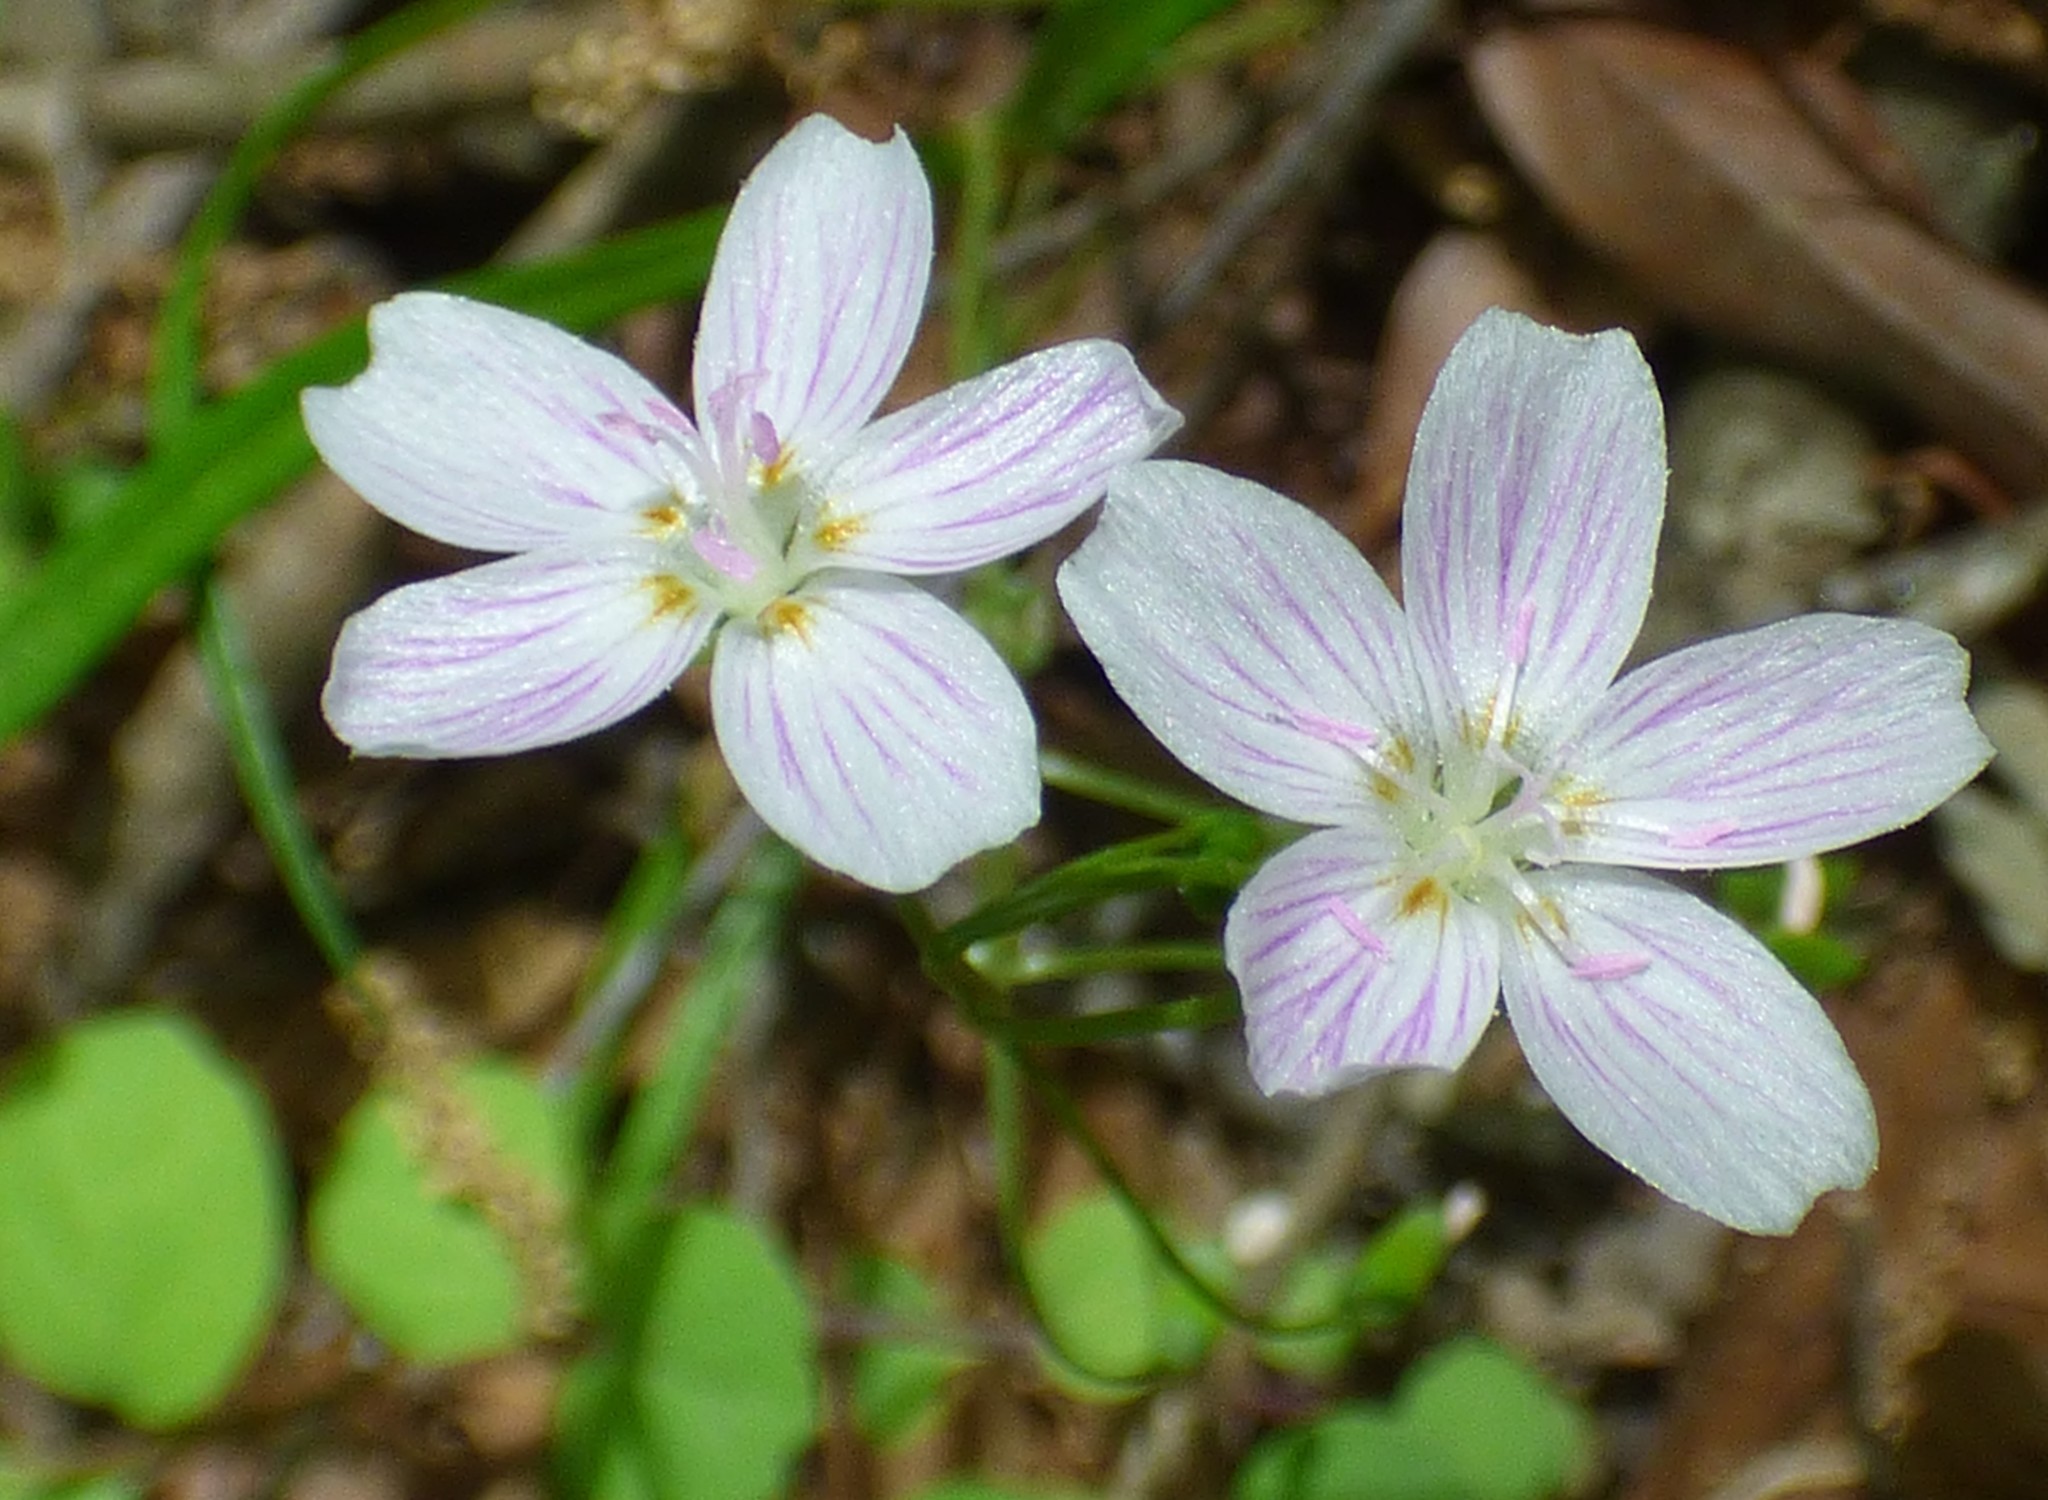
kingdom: Plantae
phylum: Tracheophyta
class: Magnoliopsida
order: Caryophyllales
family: Montiaceae
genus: Claytonia
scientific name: Claytonia virginica
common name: Virginia springbeauty
